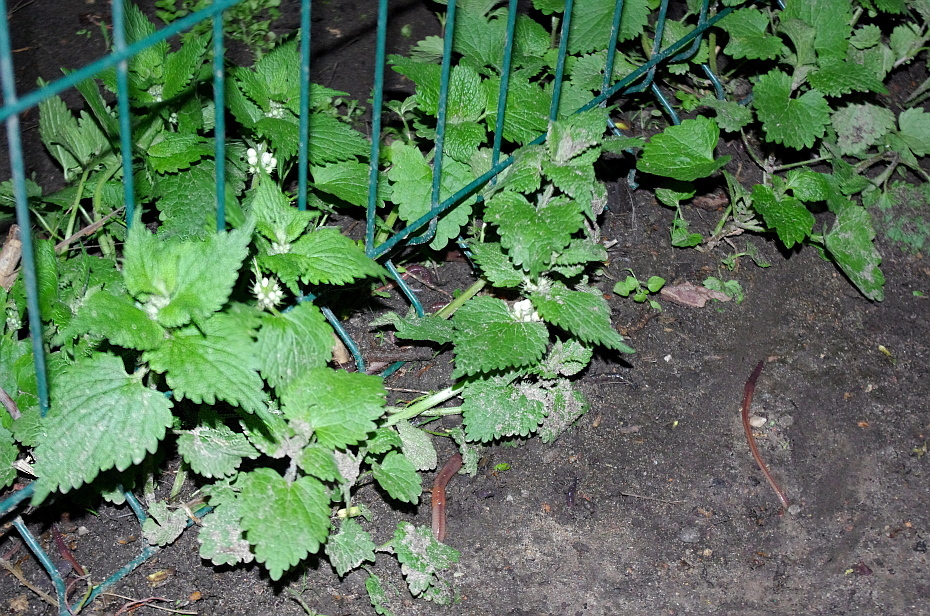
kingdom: Plantae
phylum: Tracheophyta
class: Magnoliopsida
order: Lamiales
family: Lamiaceae
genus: Lamium
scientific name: Lamium album
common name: White dead-nettle
